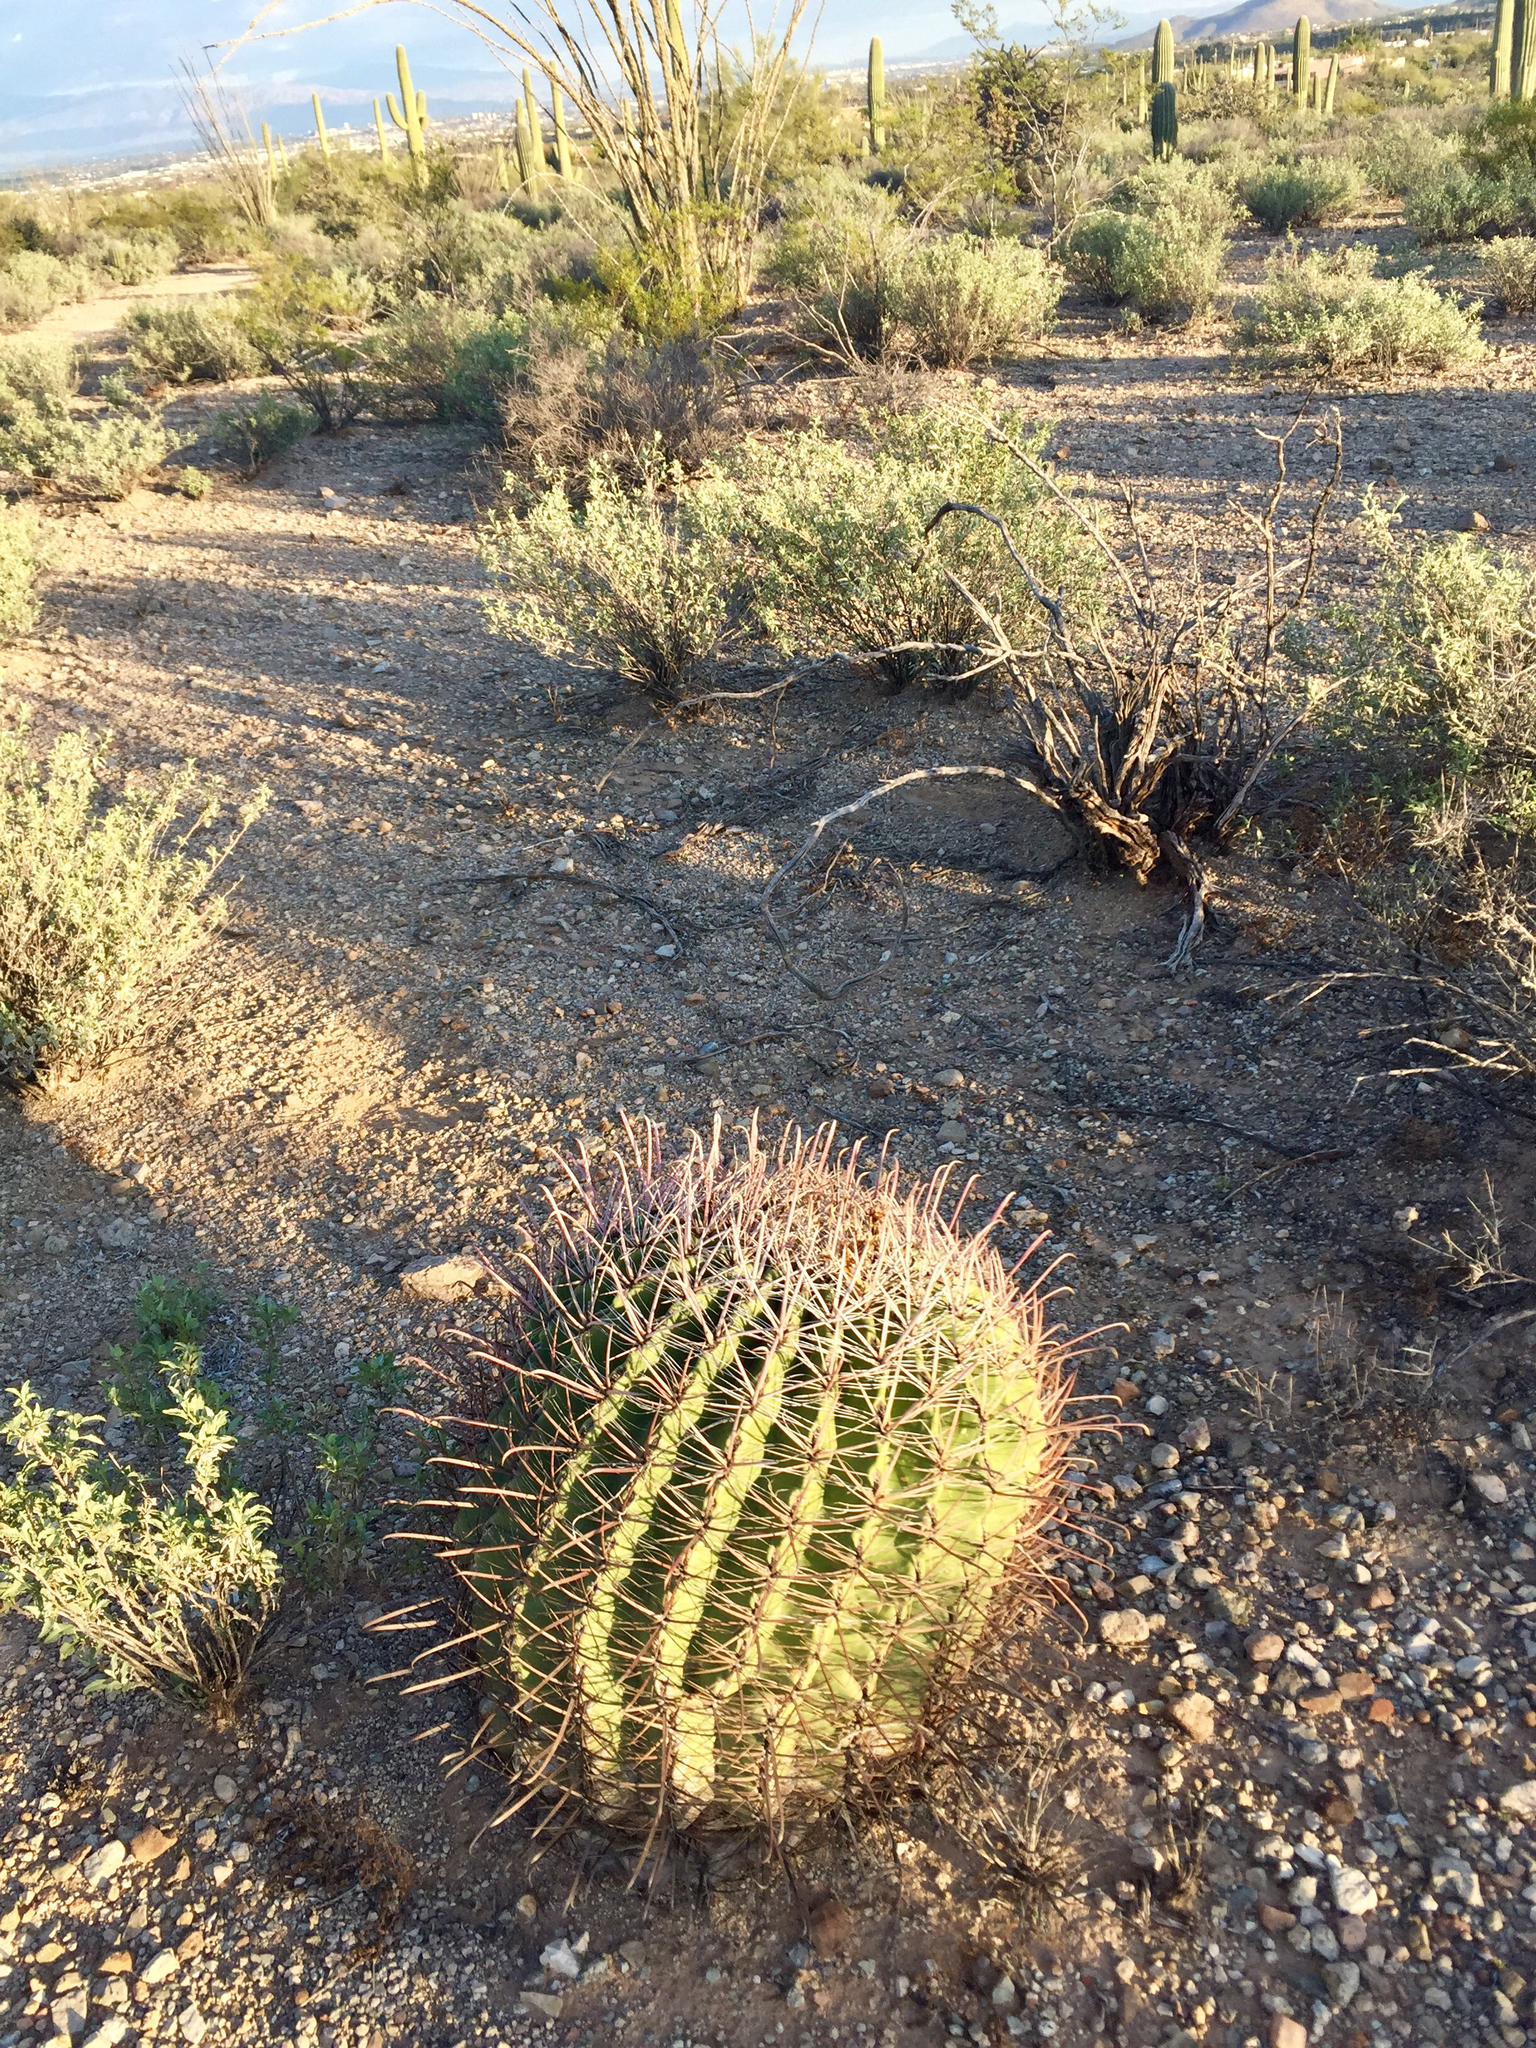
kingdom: Plantae
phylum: Tracheophyta
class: Magnoliopsida
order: Caryophyllales
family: Cactaceae
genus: Ferocactus
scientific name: Ferocactus wislizeni
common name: Candy barrel cactus
